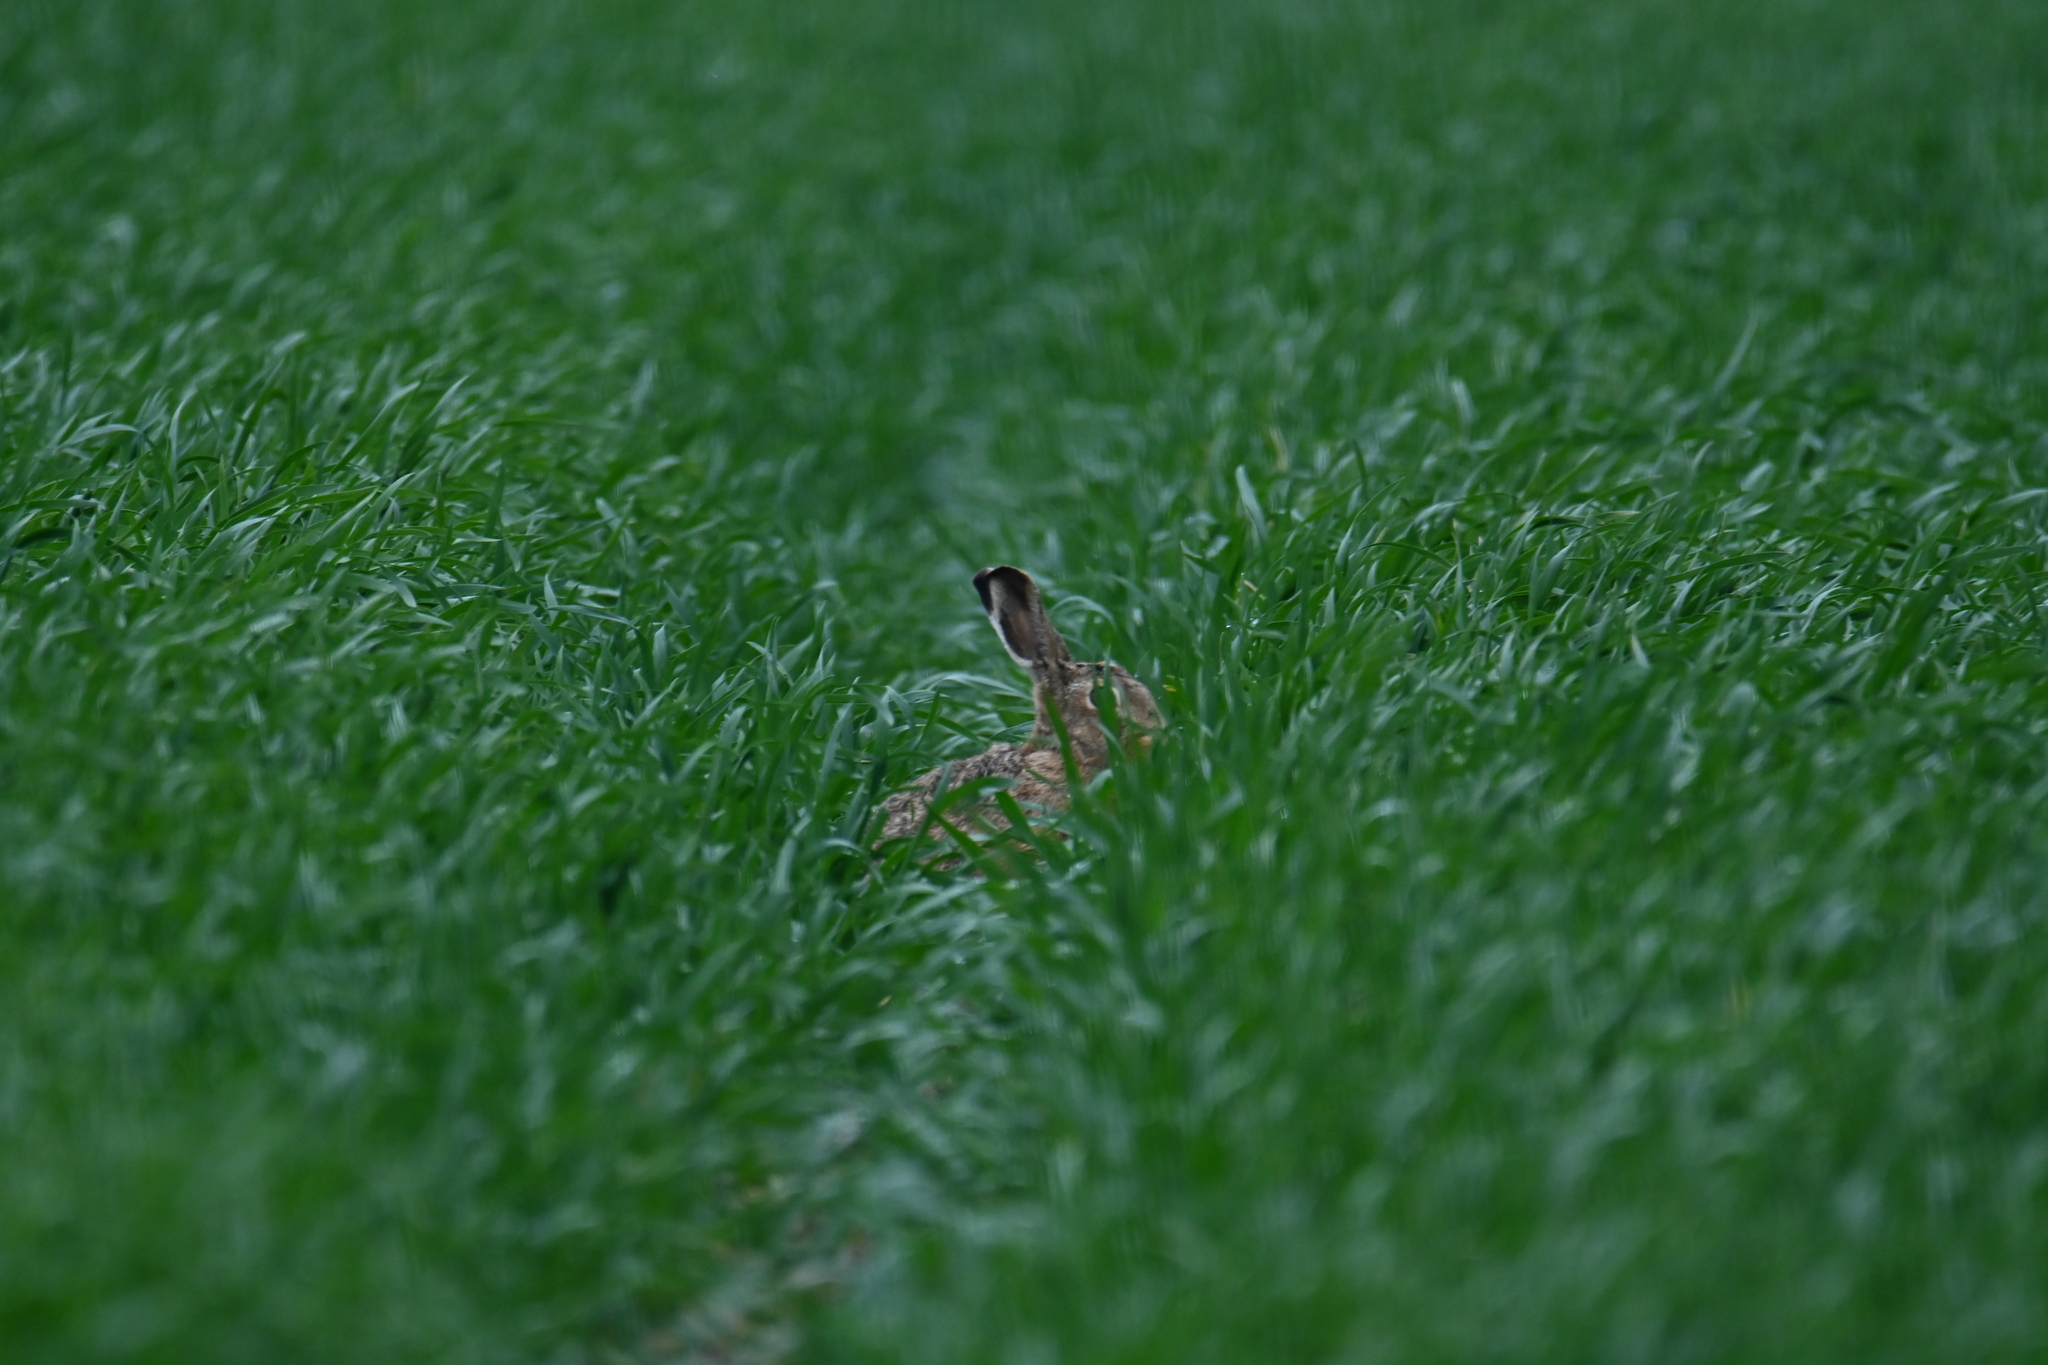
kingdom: Animalia
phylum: Chordata
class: Mammalia
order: Lagomorpha
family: Leporidae
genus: Lepus
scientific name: Lepus europaeus
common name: European hare
